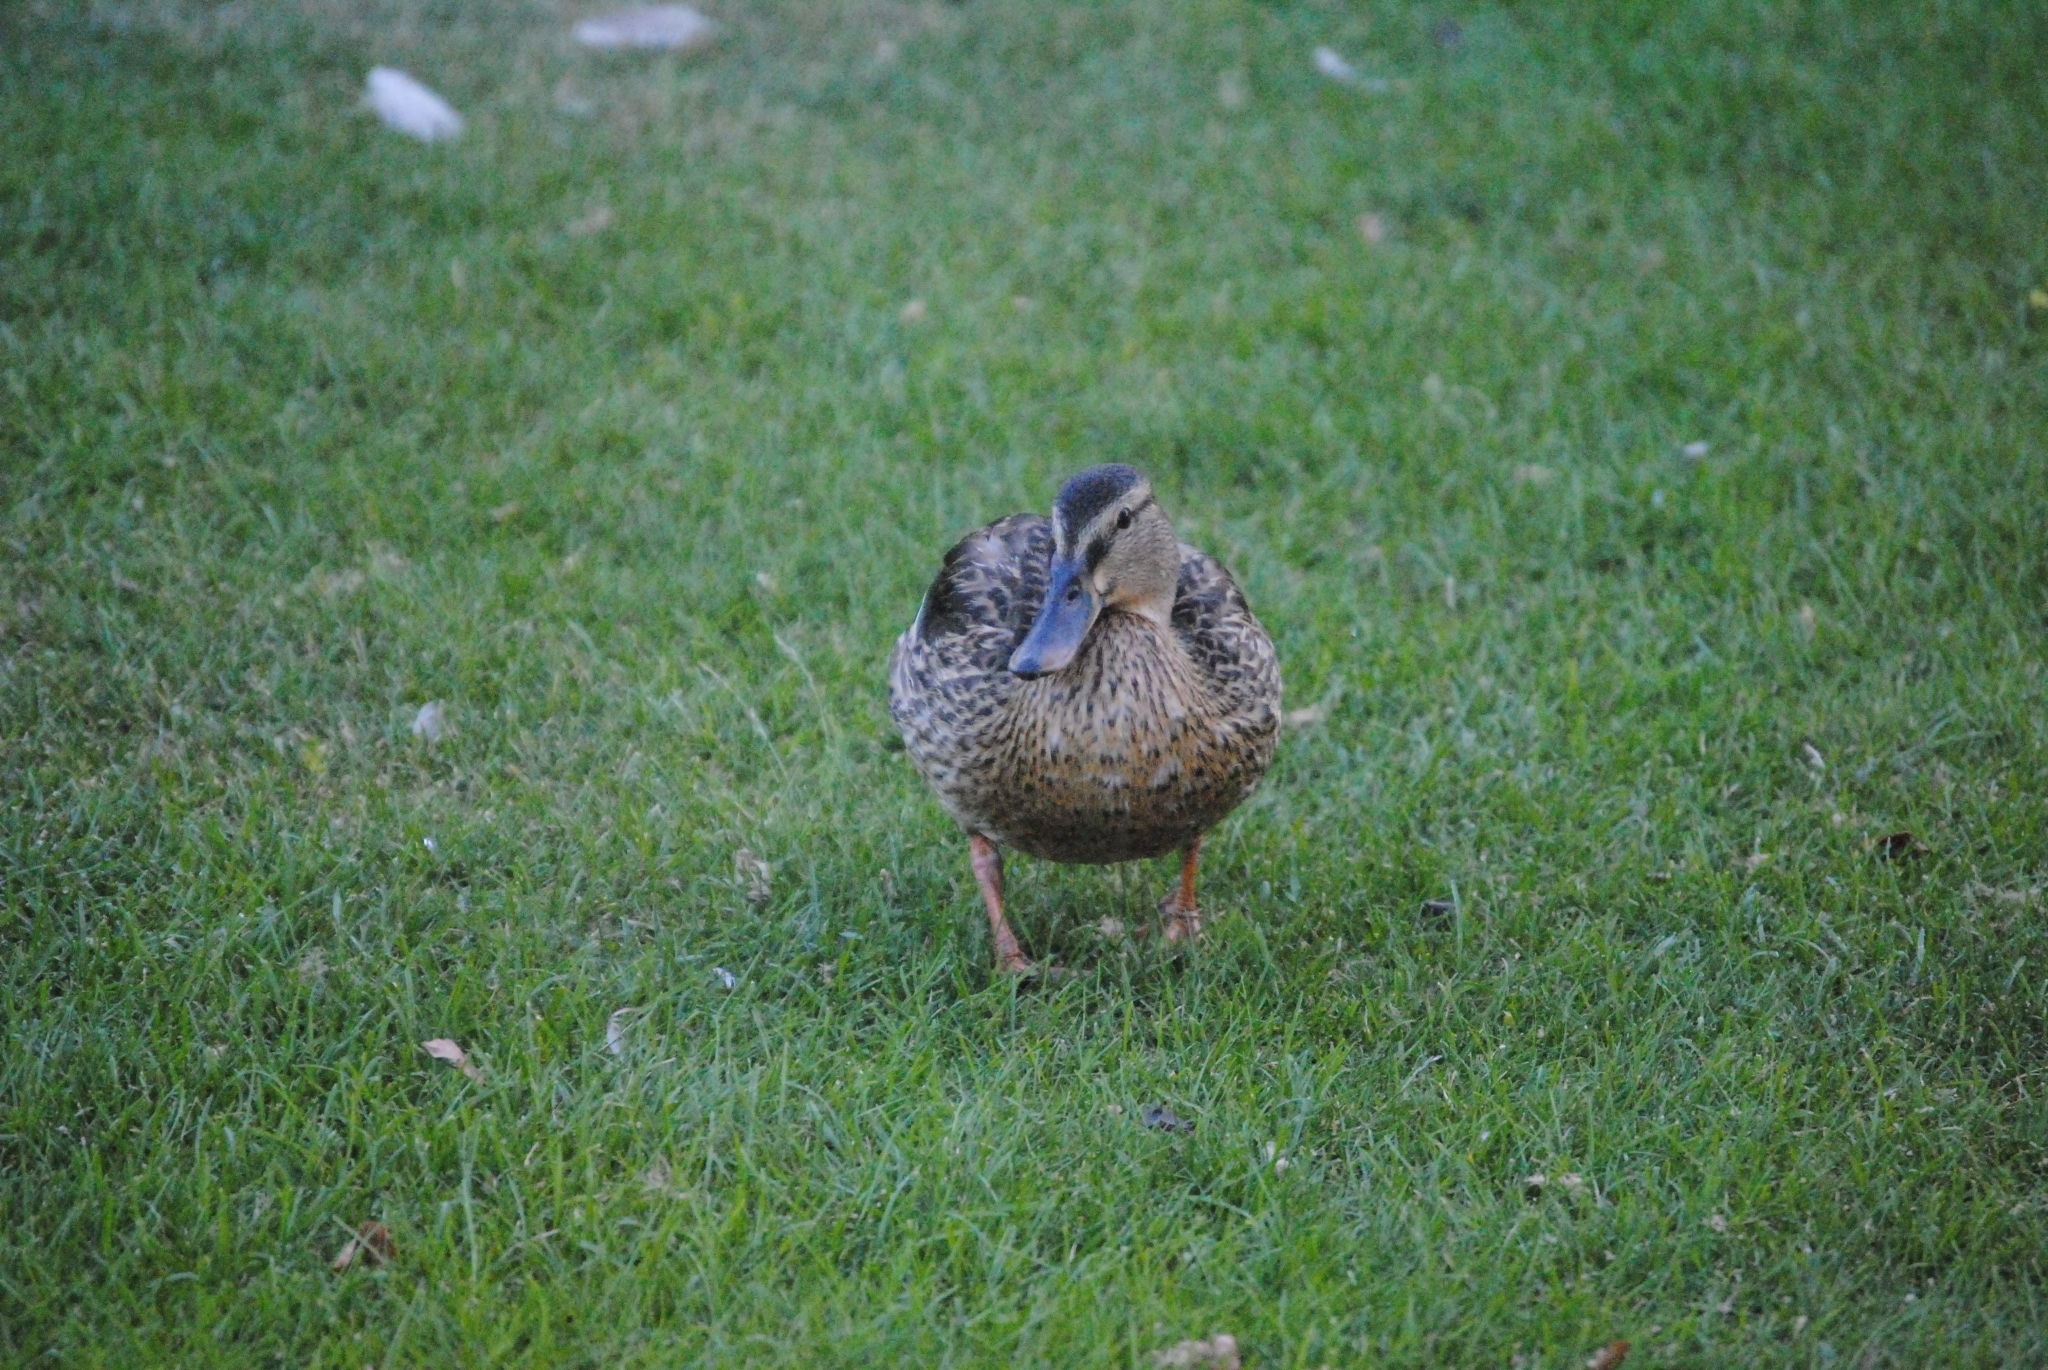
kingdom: Animalia
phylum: Chordata
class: Aves
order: Anseriformes
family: Anatidae
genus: Anas
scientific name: Anas platyrhynchos
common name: Mallard
